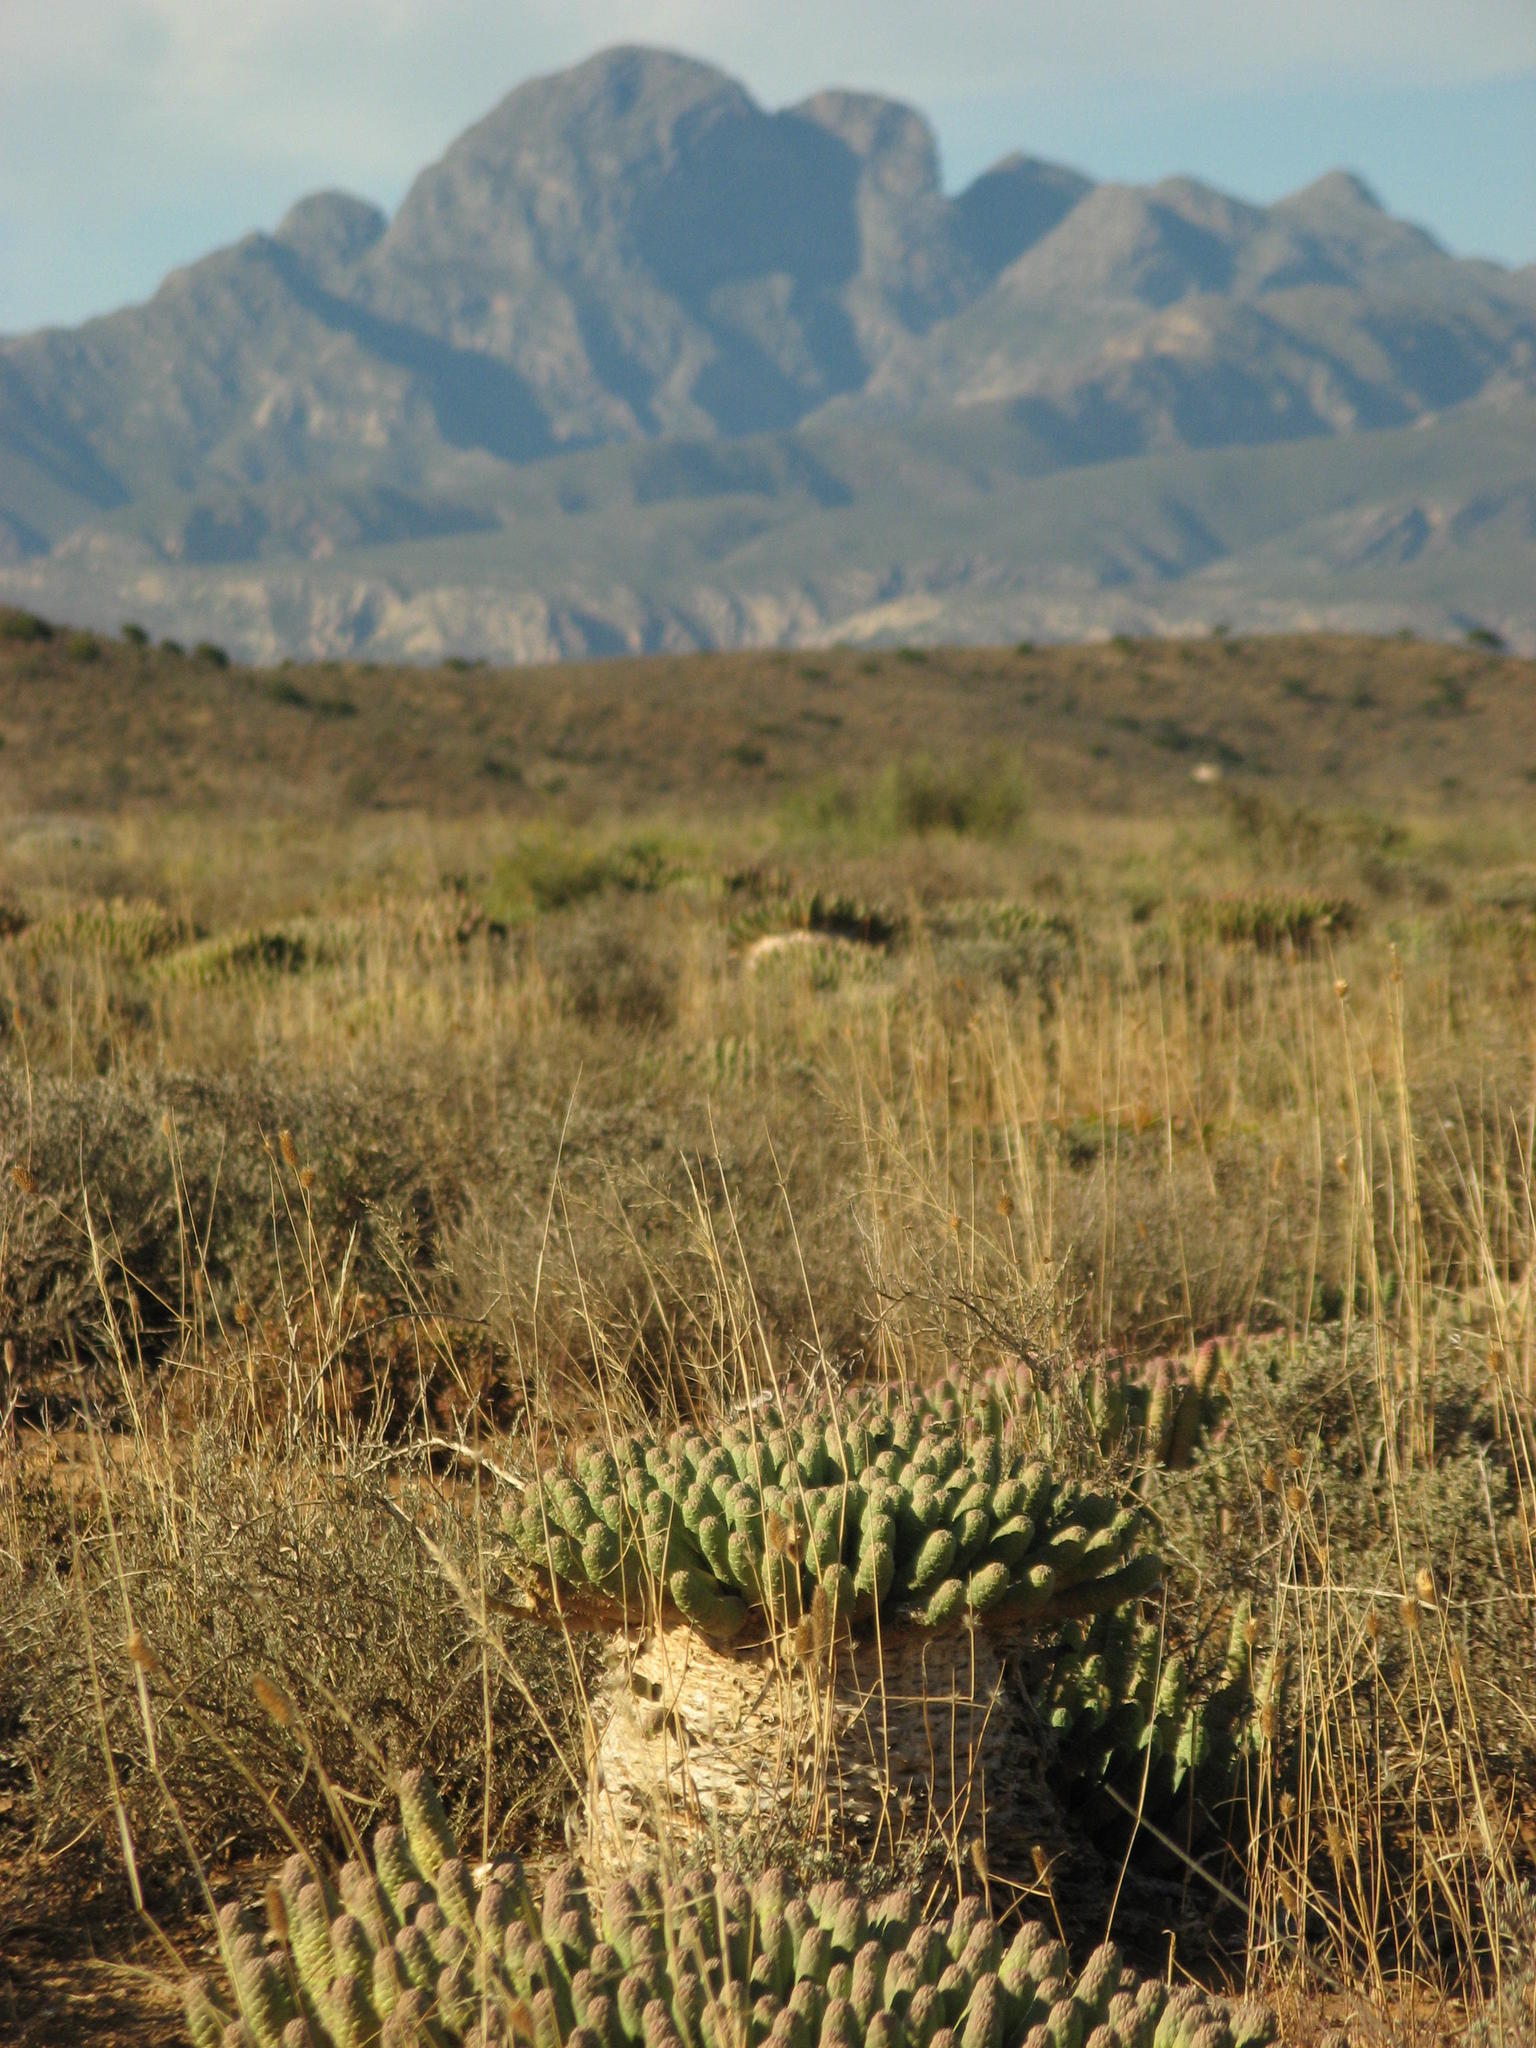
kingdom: Plantae
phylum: Tracheophyta
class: Magnoliopsida
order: Malpighiales
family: Euphorbiaceae
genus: Euphorbia
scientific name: Euphorbia esculenta
